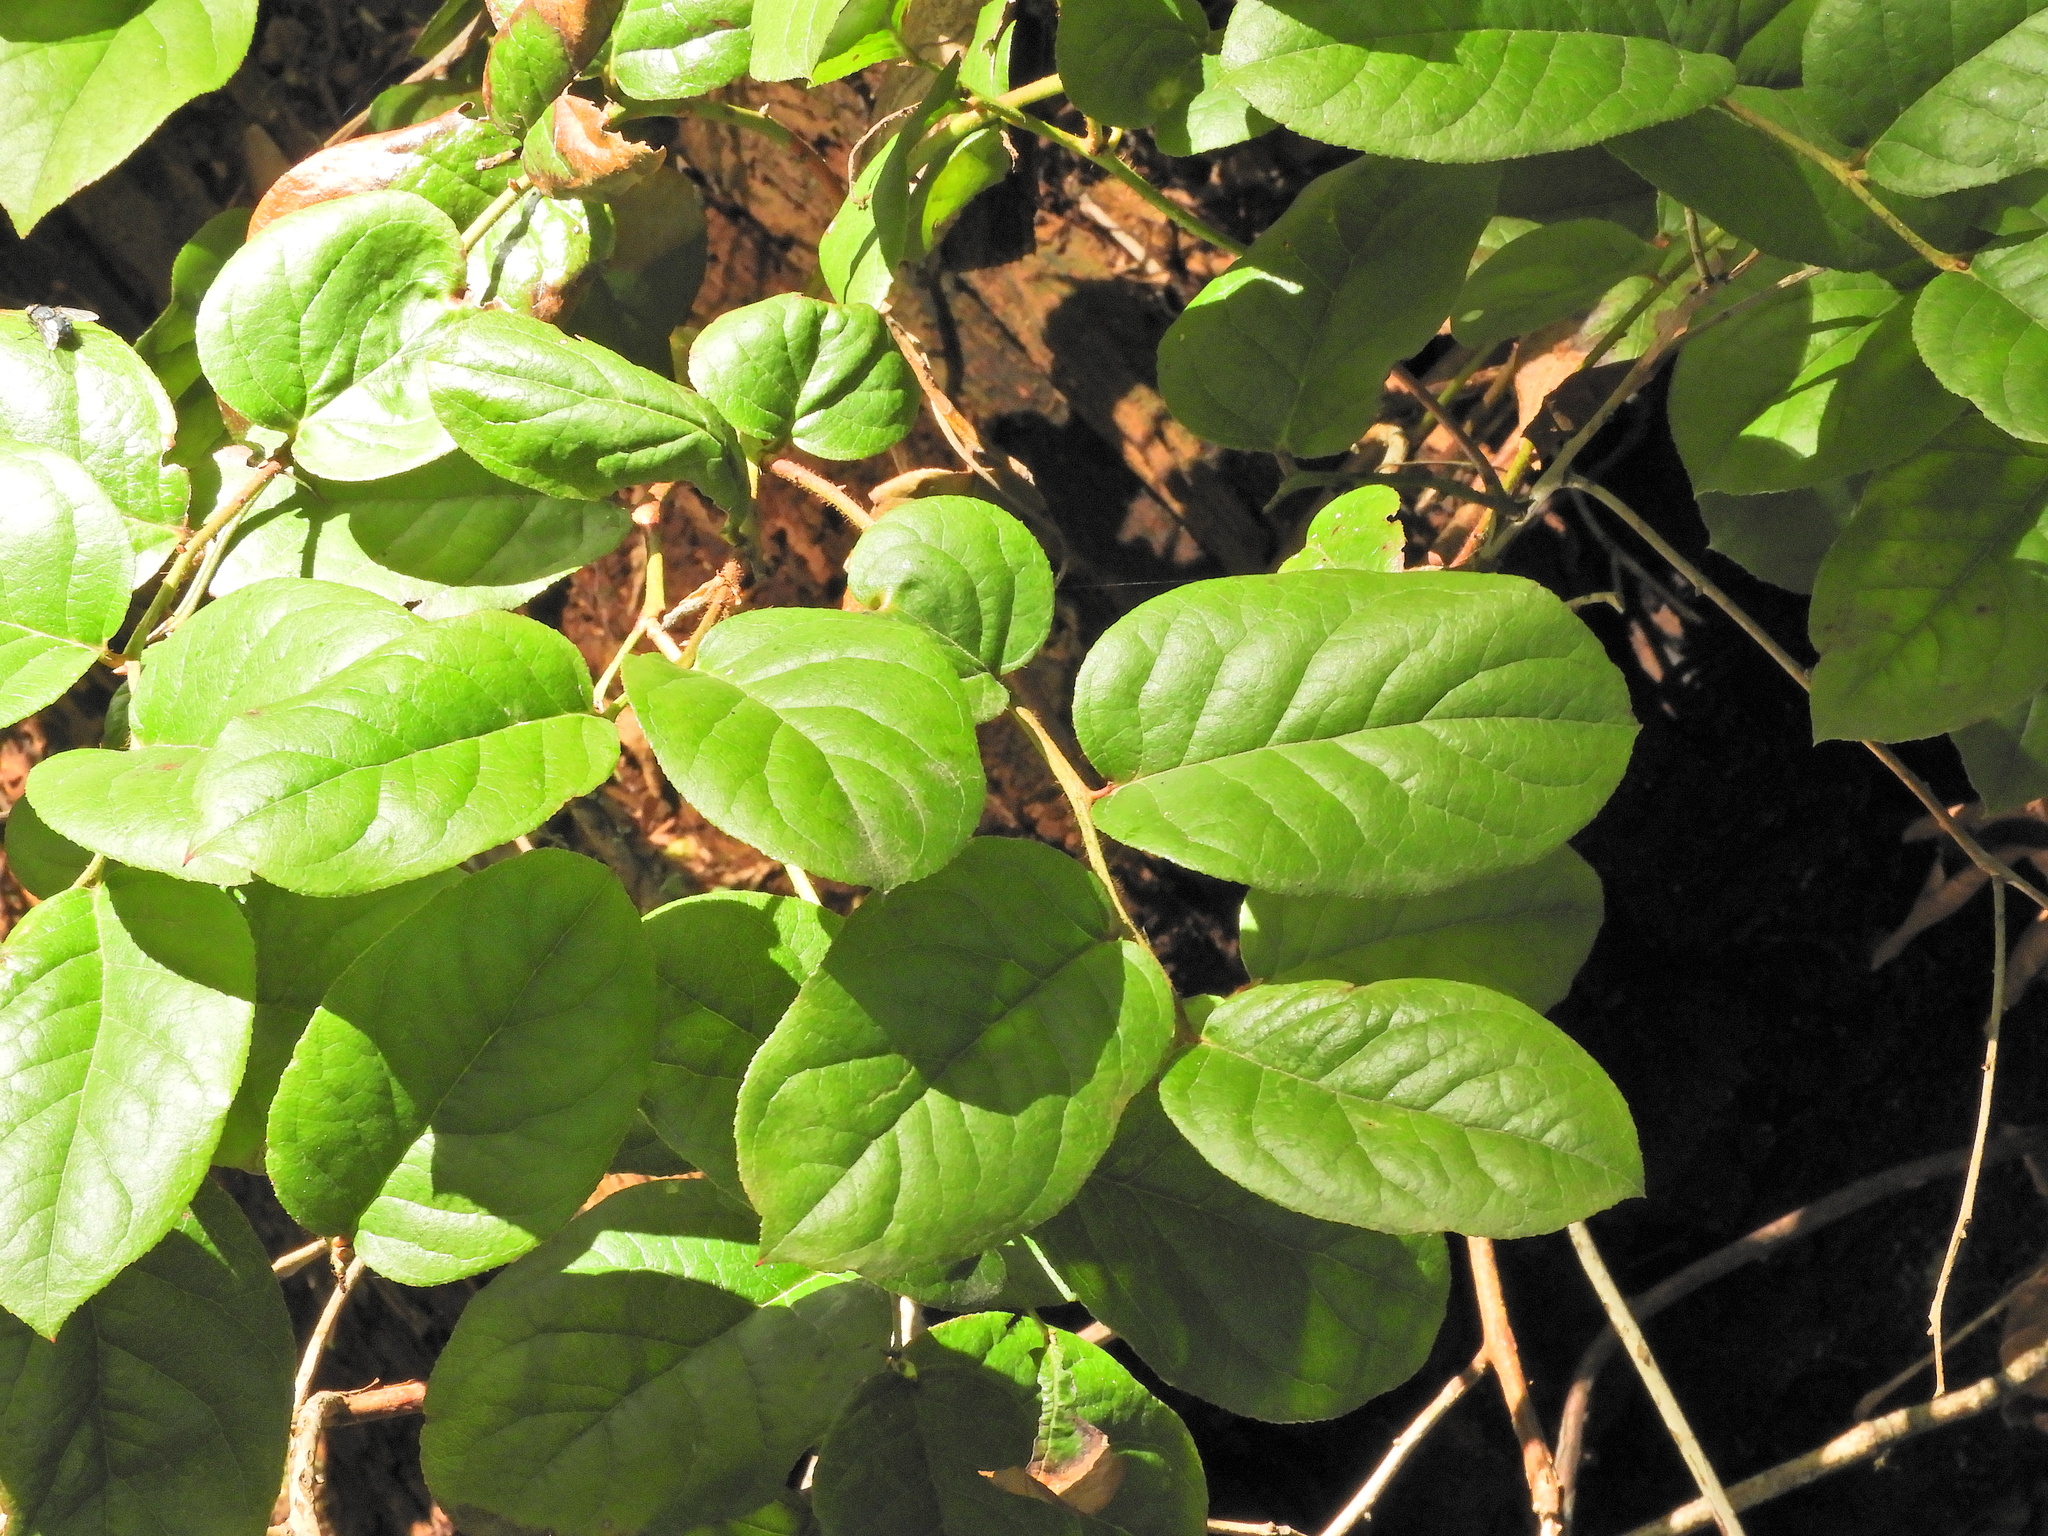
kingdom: Plantae
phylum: Tracheophyta
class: Magnoliopsida
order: Ericales
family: Ericaceae
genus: Gaultheria
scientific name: Gaultheria shallon
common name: Shallon
